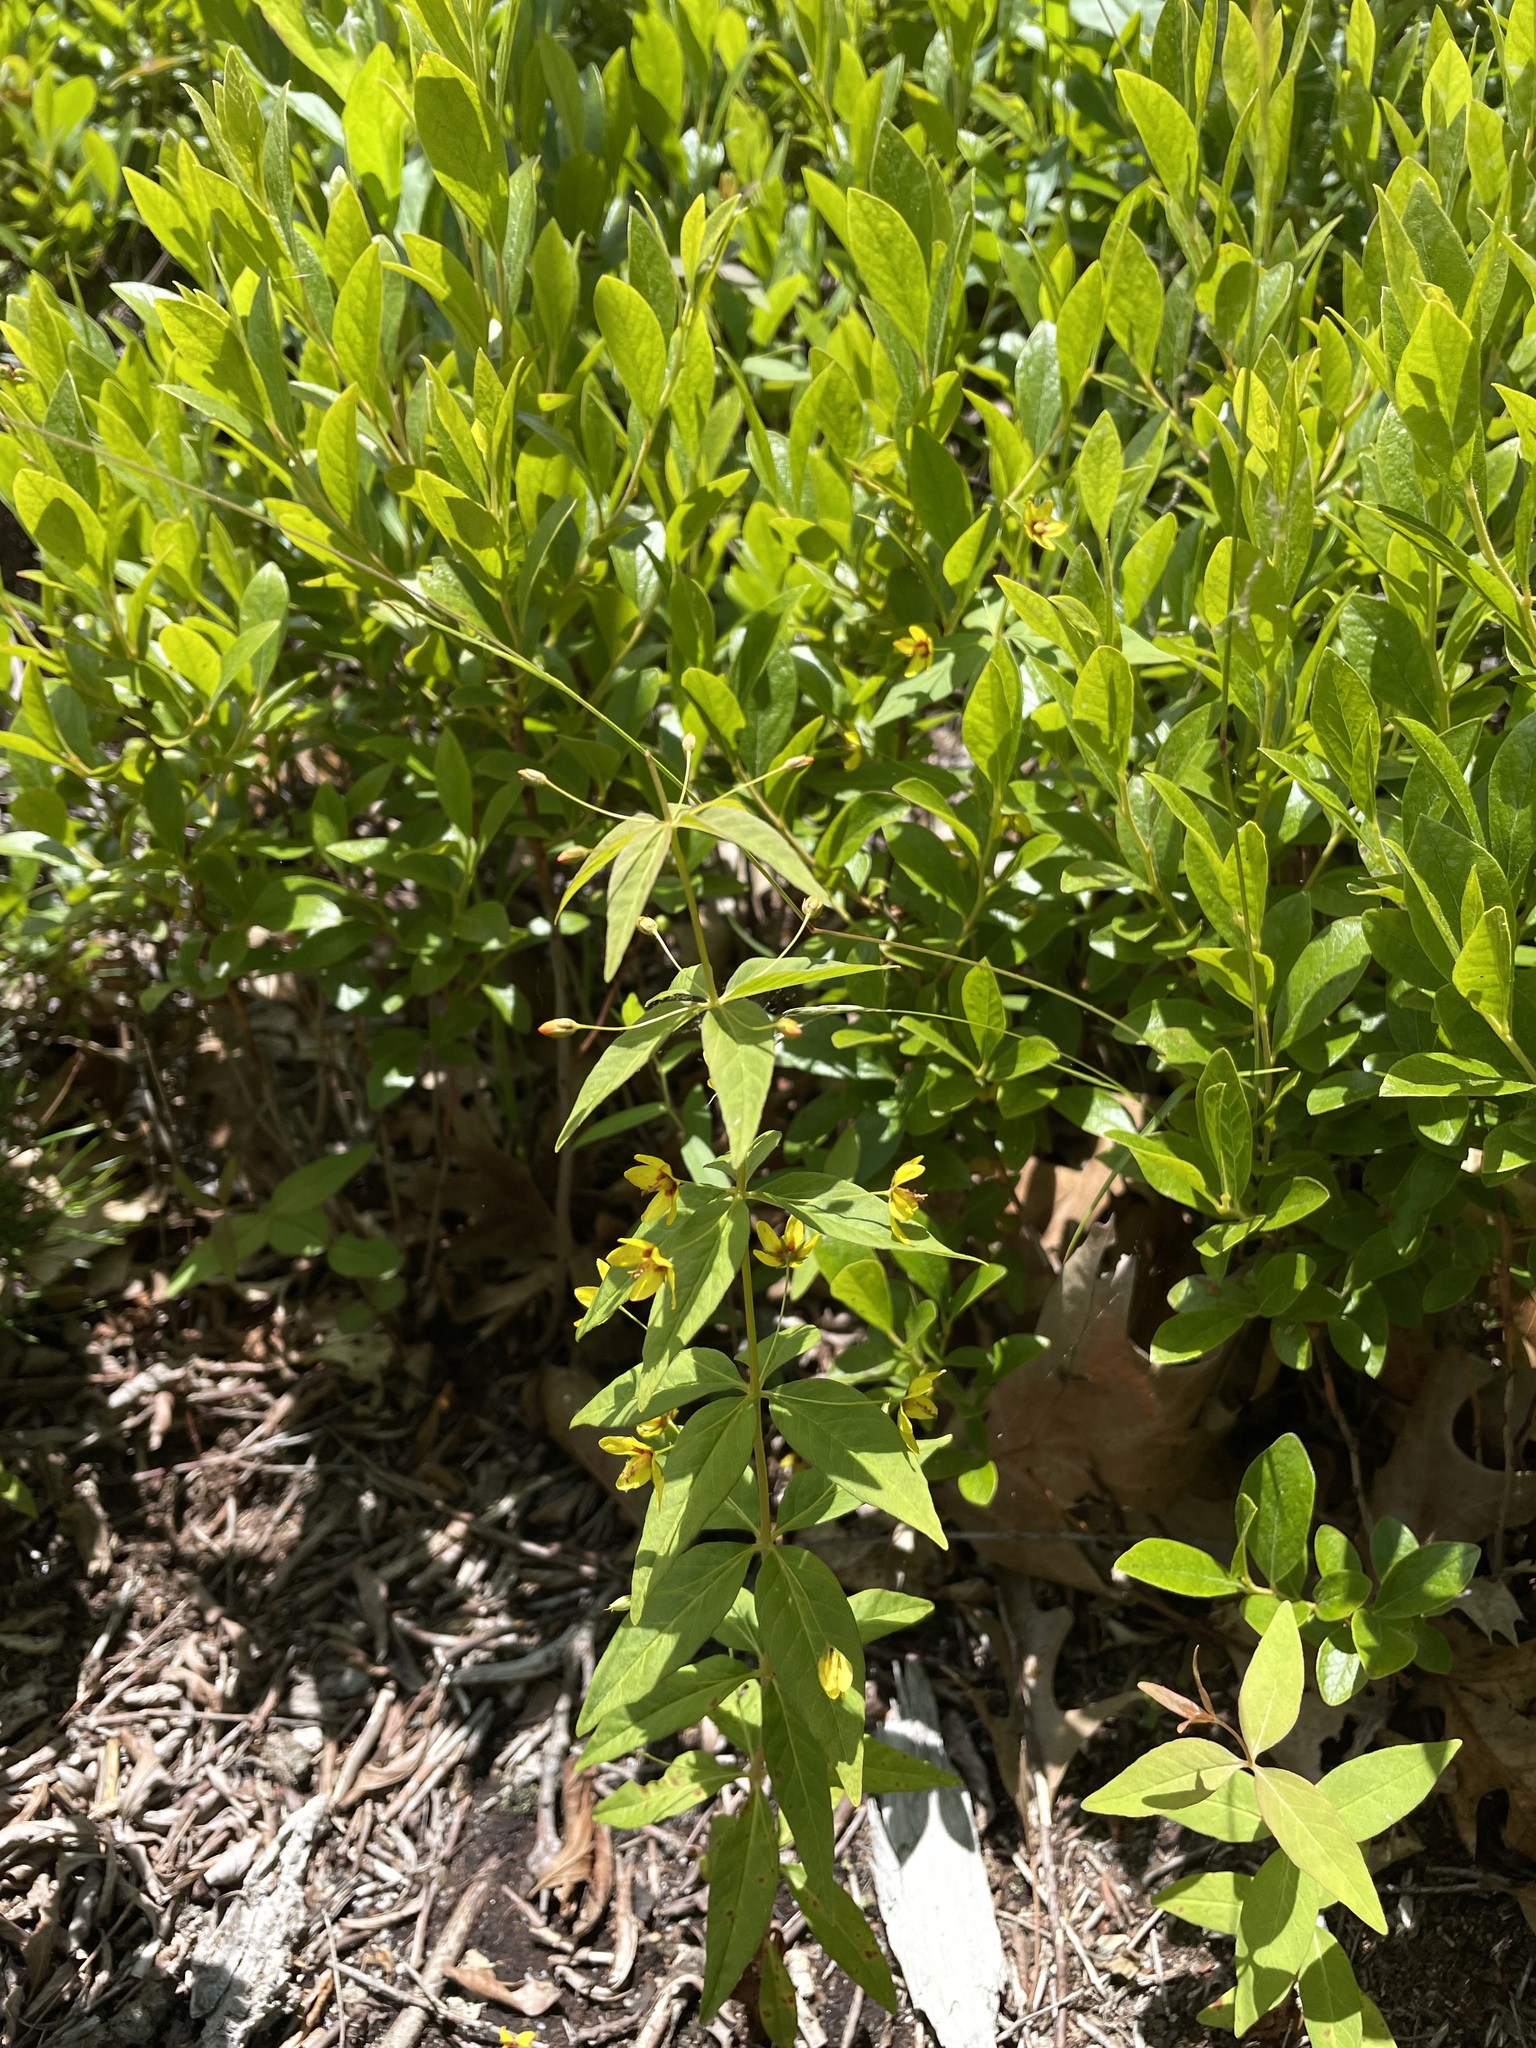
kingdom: Plantae
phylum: Tracheophyta
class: Magnoliopsida
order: Ericales
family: Primulaceae
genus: Lysimachia
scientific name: Lysimachia quadrifolia
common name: Whorled loosestrife
